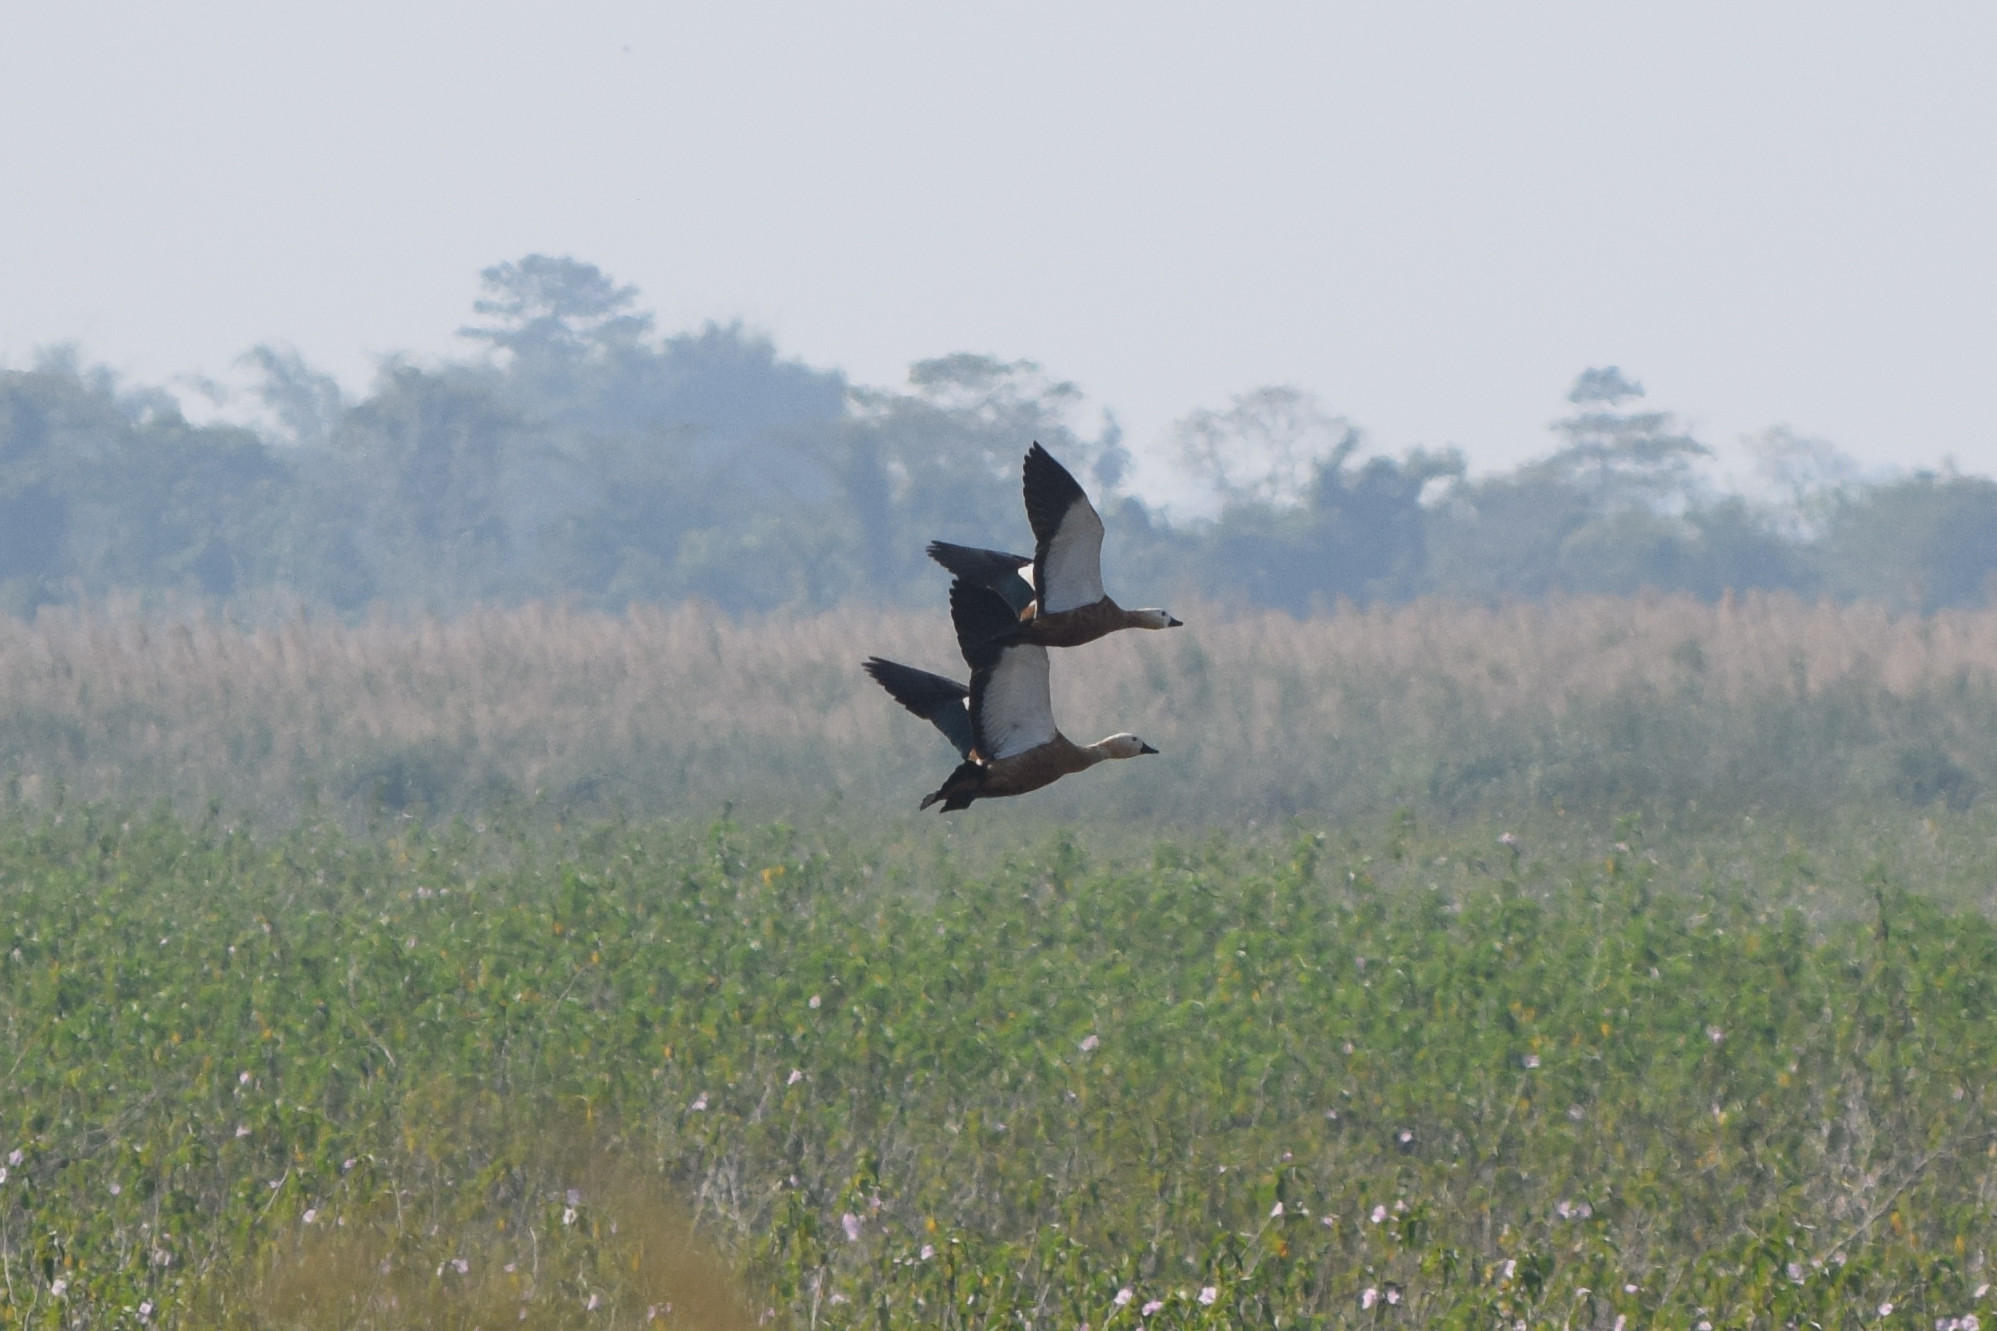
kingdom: Animalia
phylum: Chordata
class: Aves
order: Anseriformes
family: Anatidae
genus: Tadorna
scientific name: Tadorna ferruginea
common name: Ruddy shelduck
